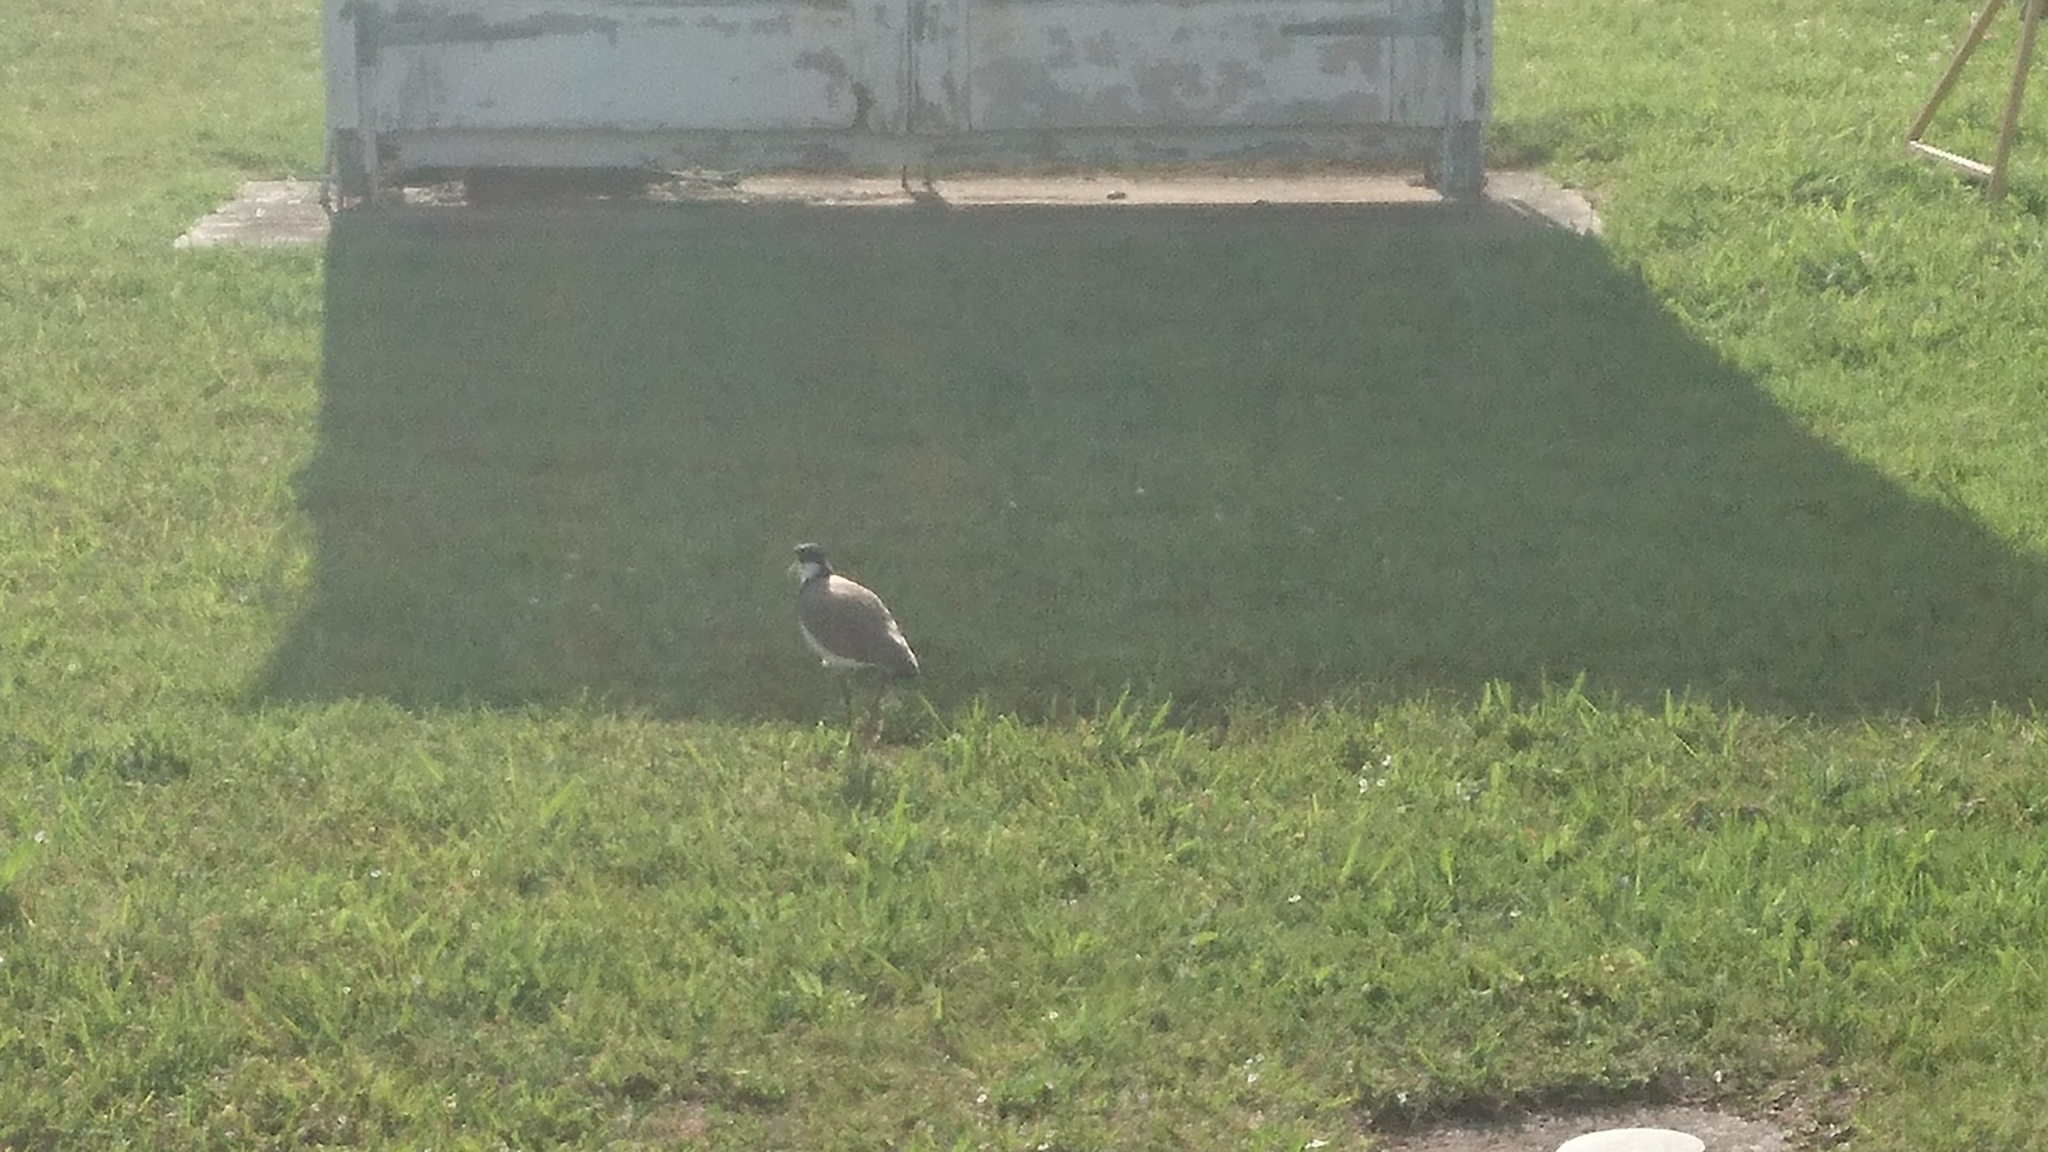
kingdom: Animalia
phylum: Chordata
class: Aves
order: Charadriiformes
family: Charadriidae
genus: Vanellus
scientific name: Vanellus miles
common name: Masked lapwing
